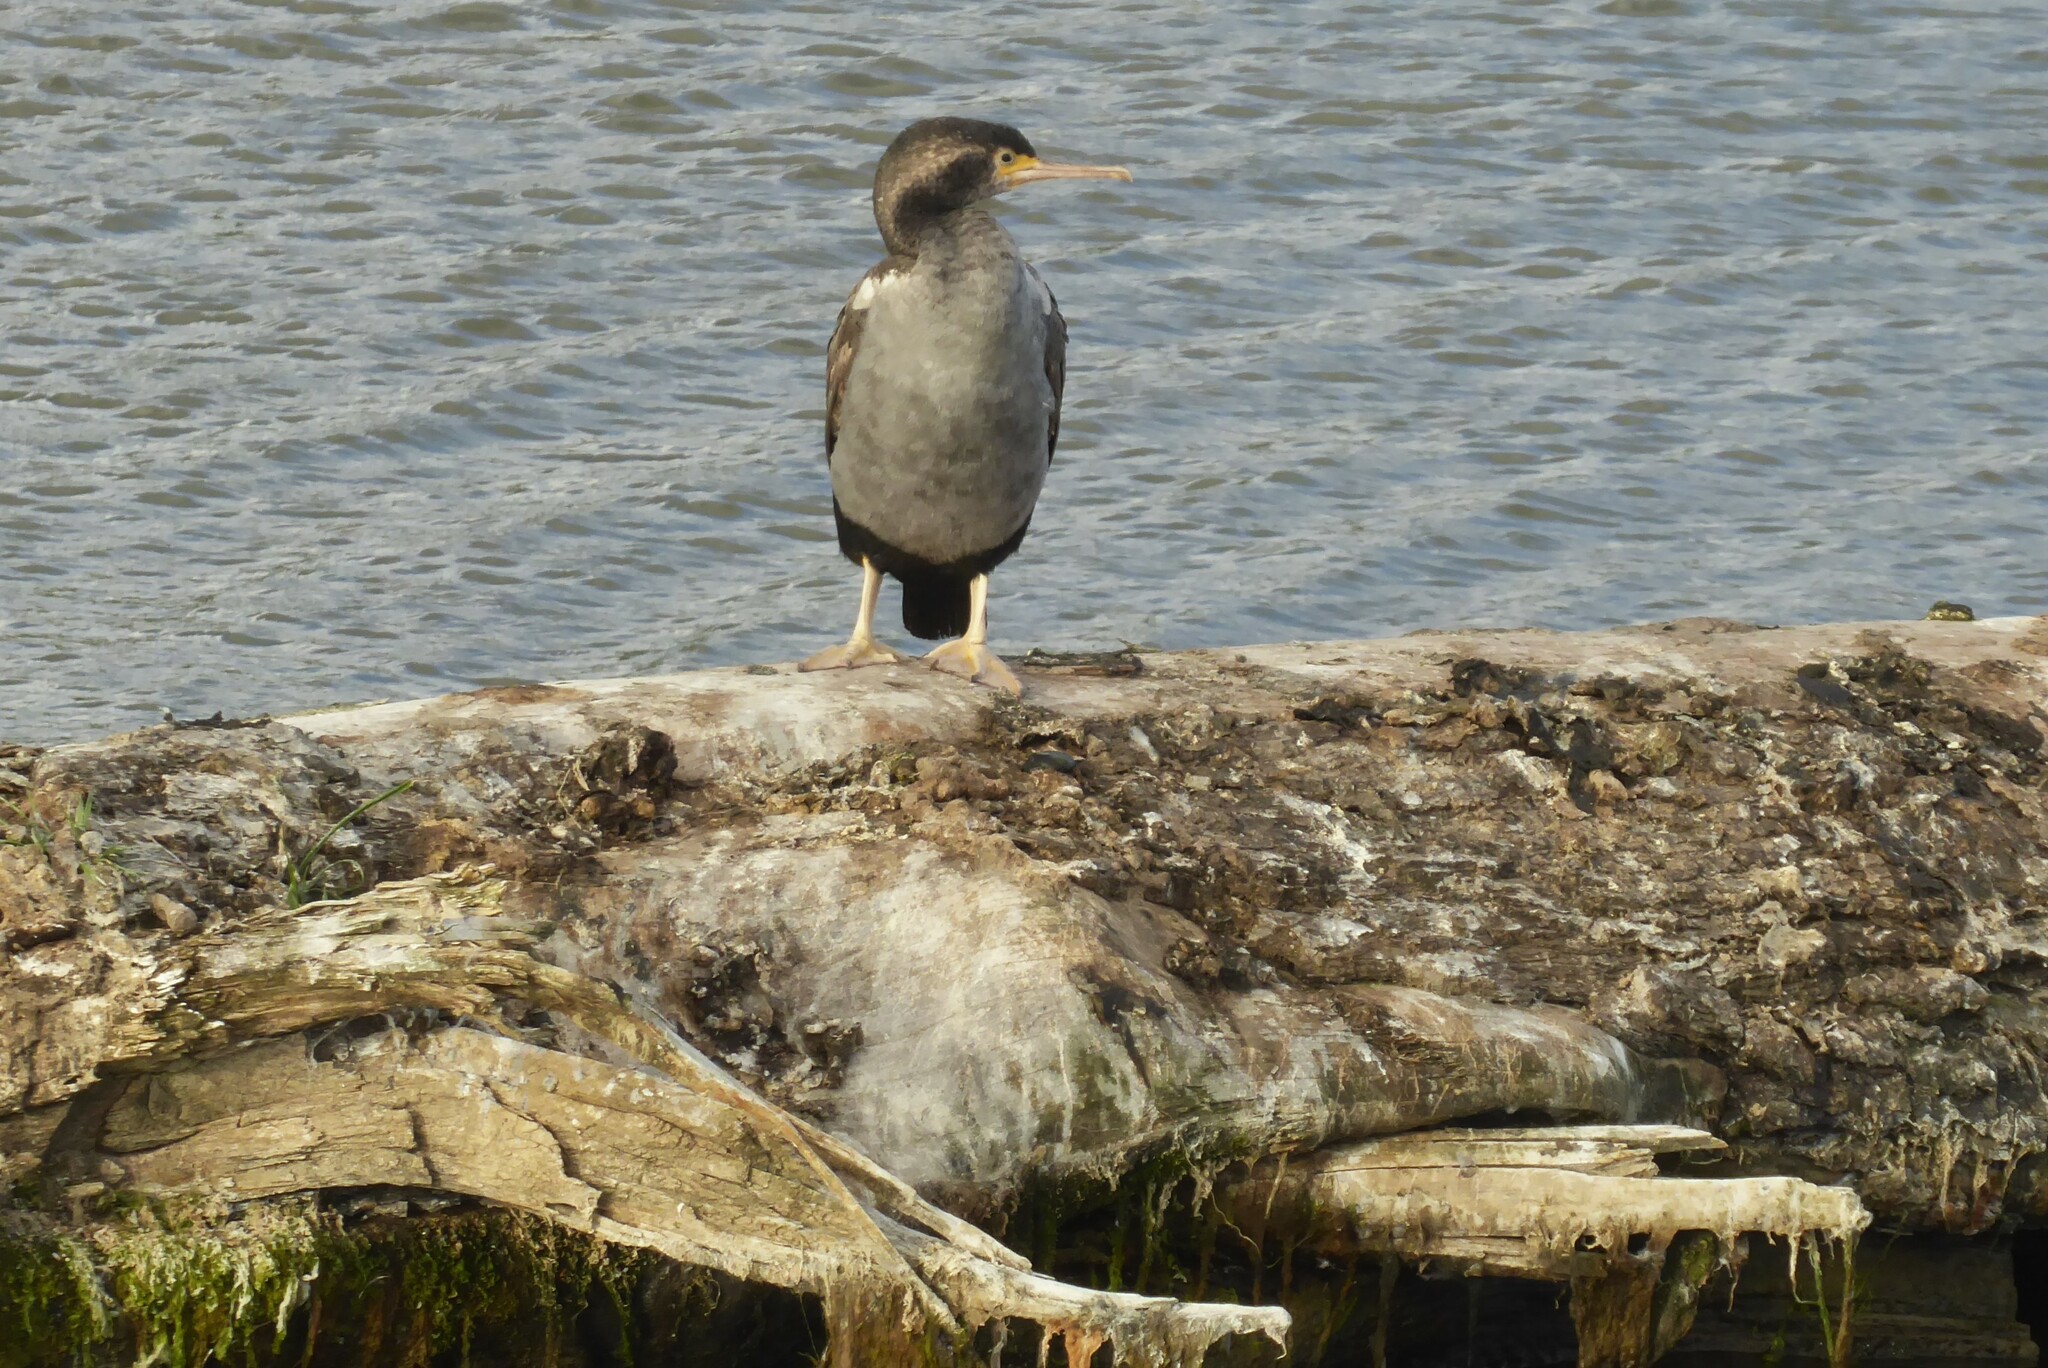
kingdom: Animalia
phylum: Chordata
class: Aves
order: Suliformes
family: Phalacrocoracidae
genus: Phalacrocorax
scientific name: Phalacrocorax punctatus
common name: Spotted shag
